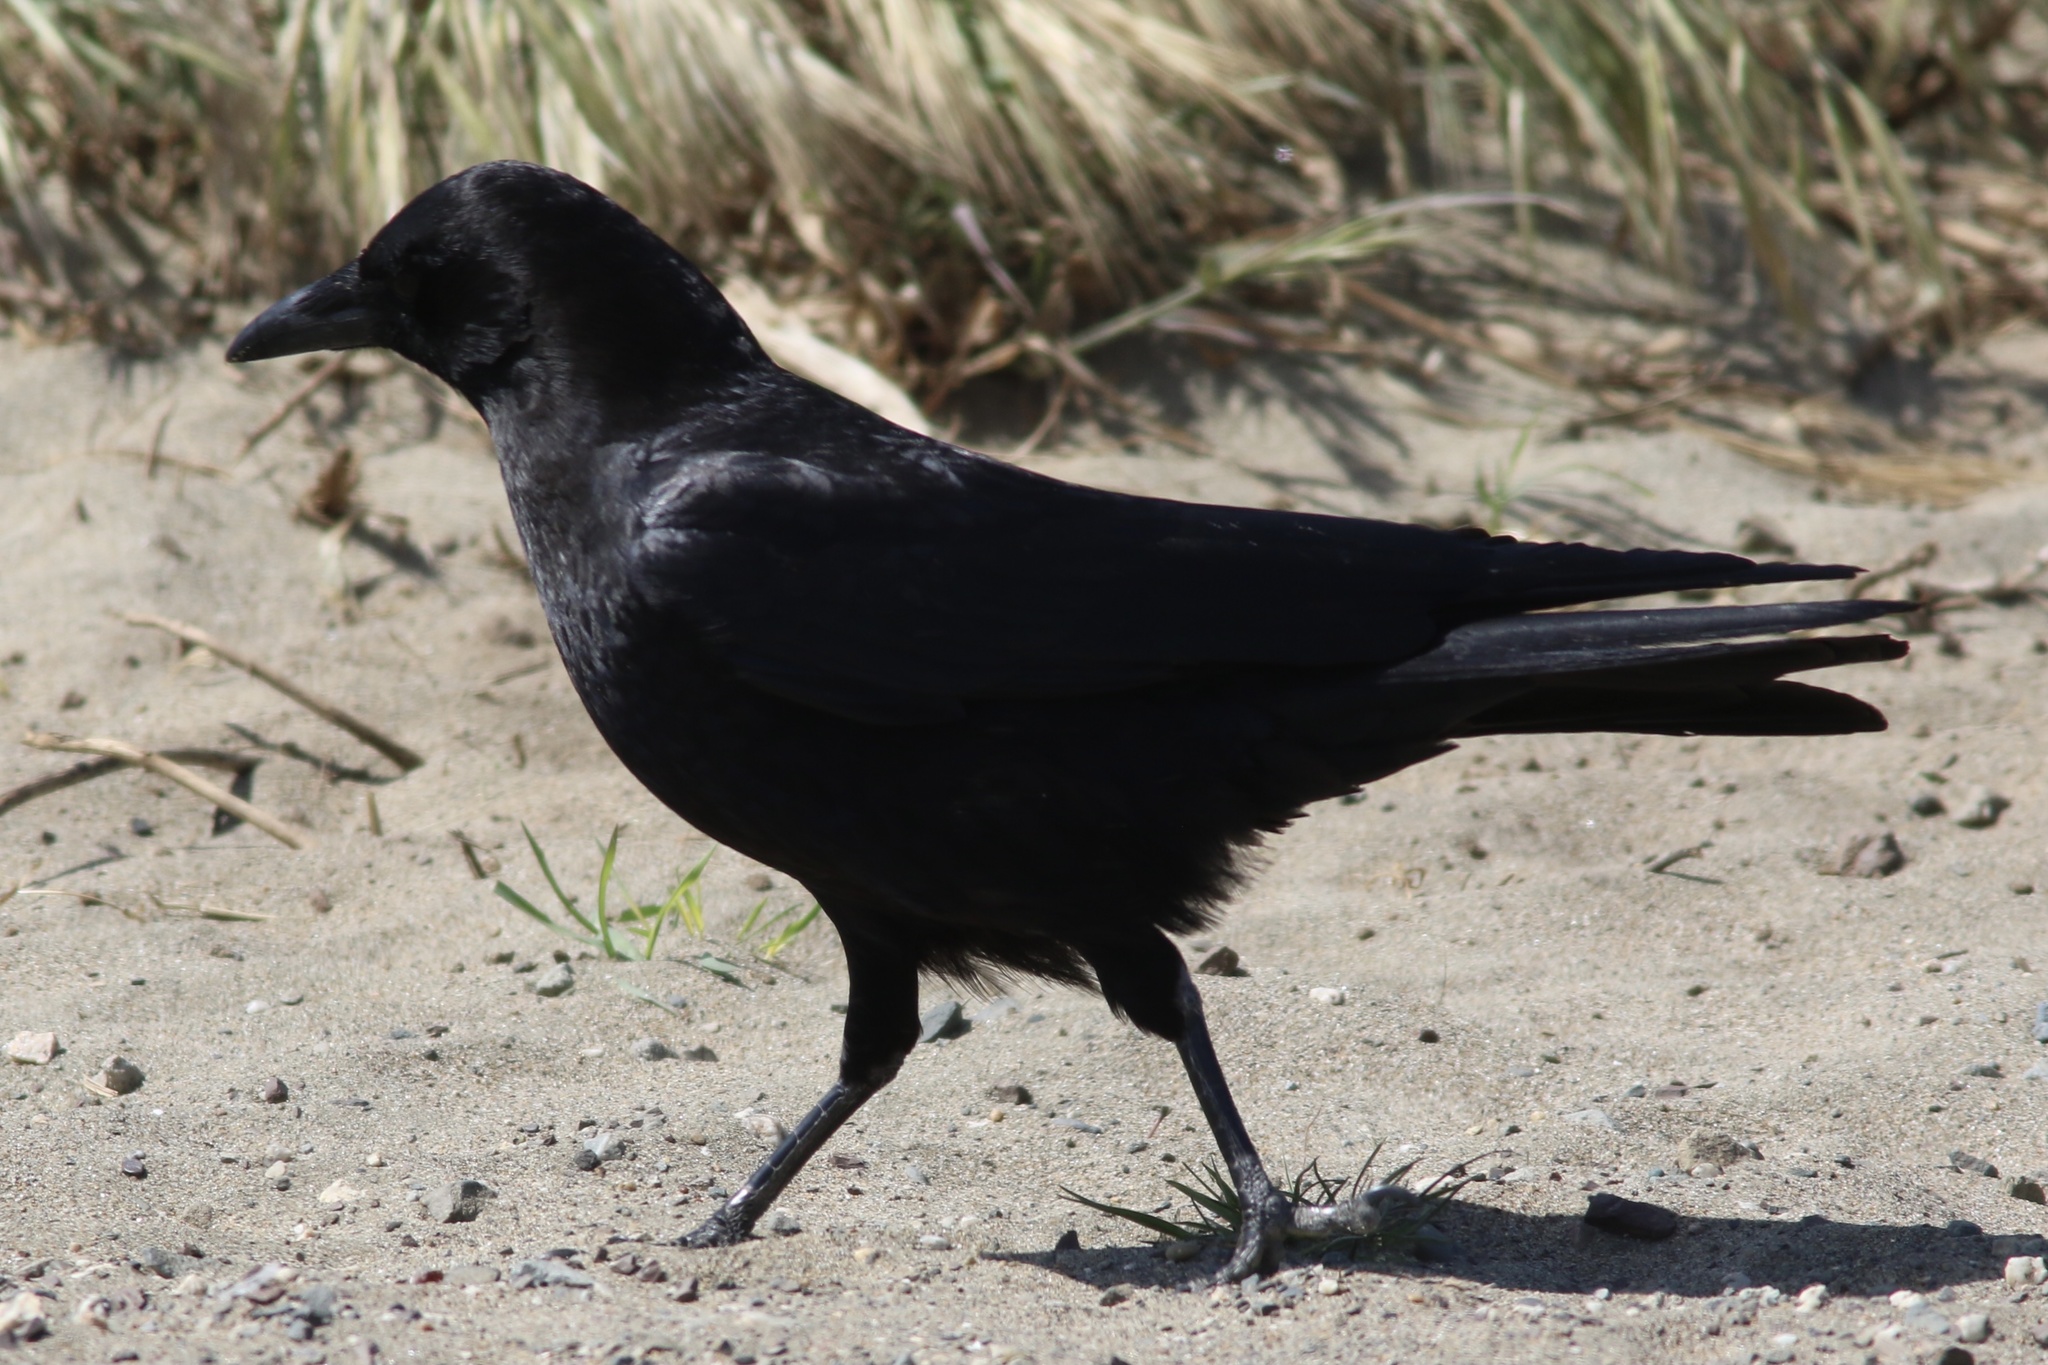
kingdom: Animalia
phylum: Chordata
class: Aves
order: Passeriformes
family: Corvidae
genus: Corvus
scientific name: Corvus brachyrhynchos
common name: American crow
